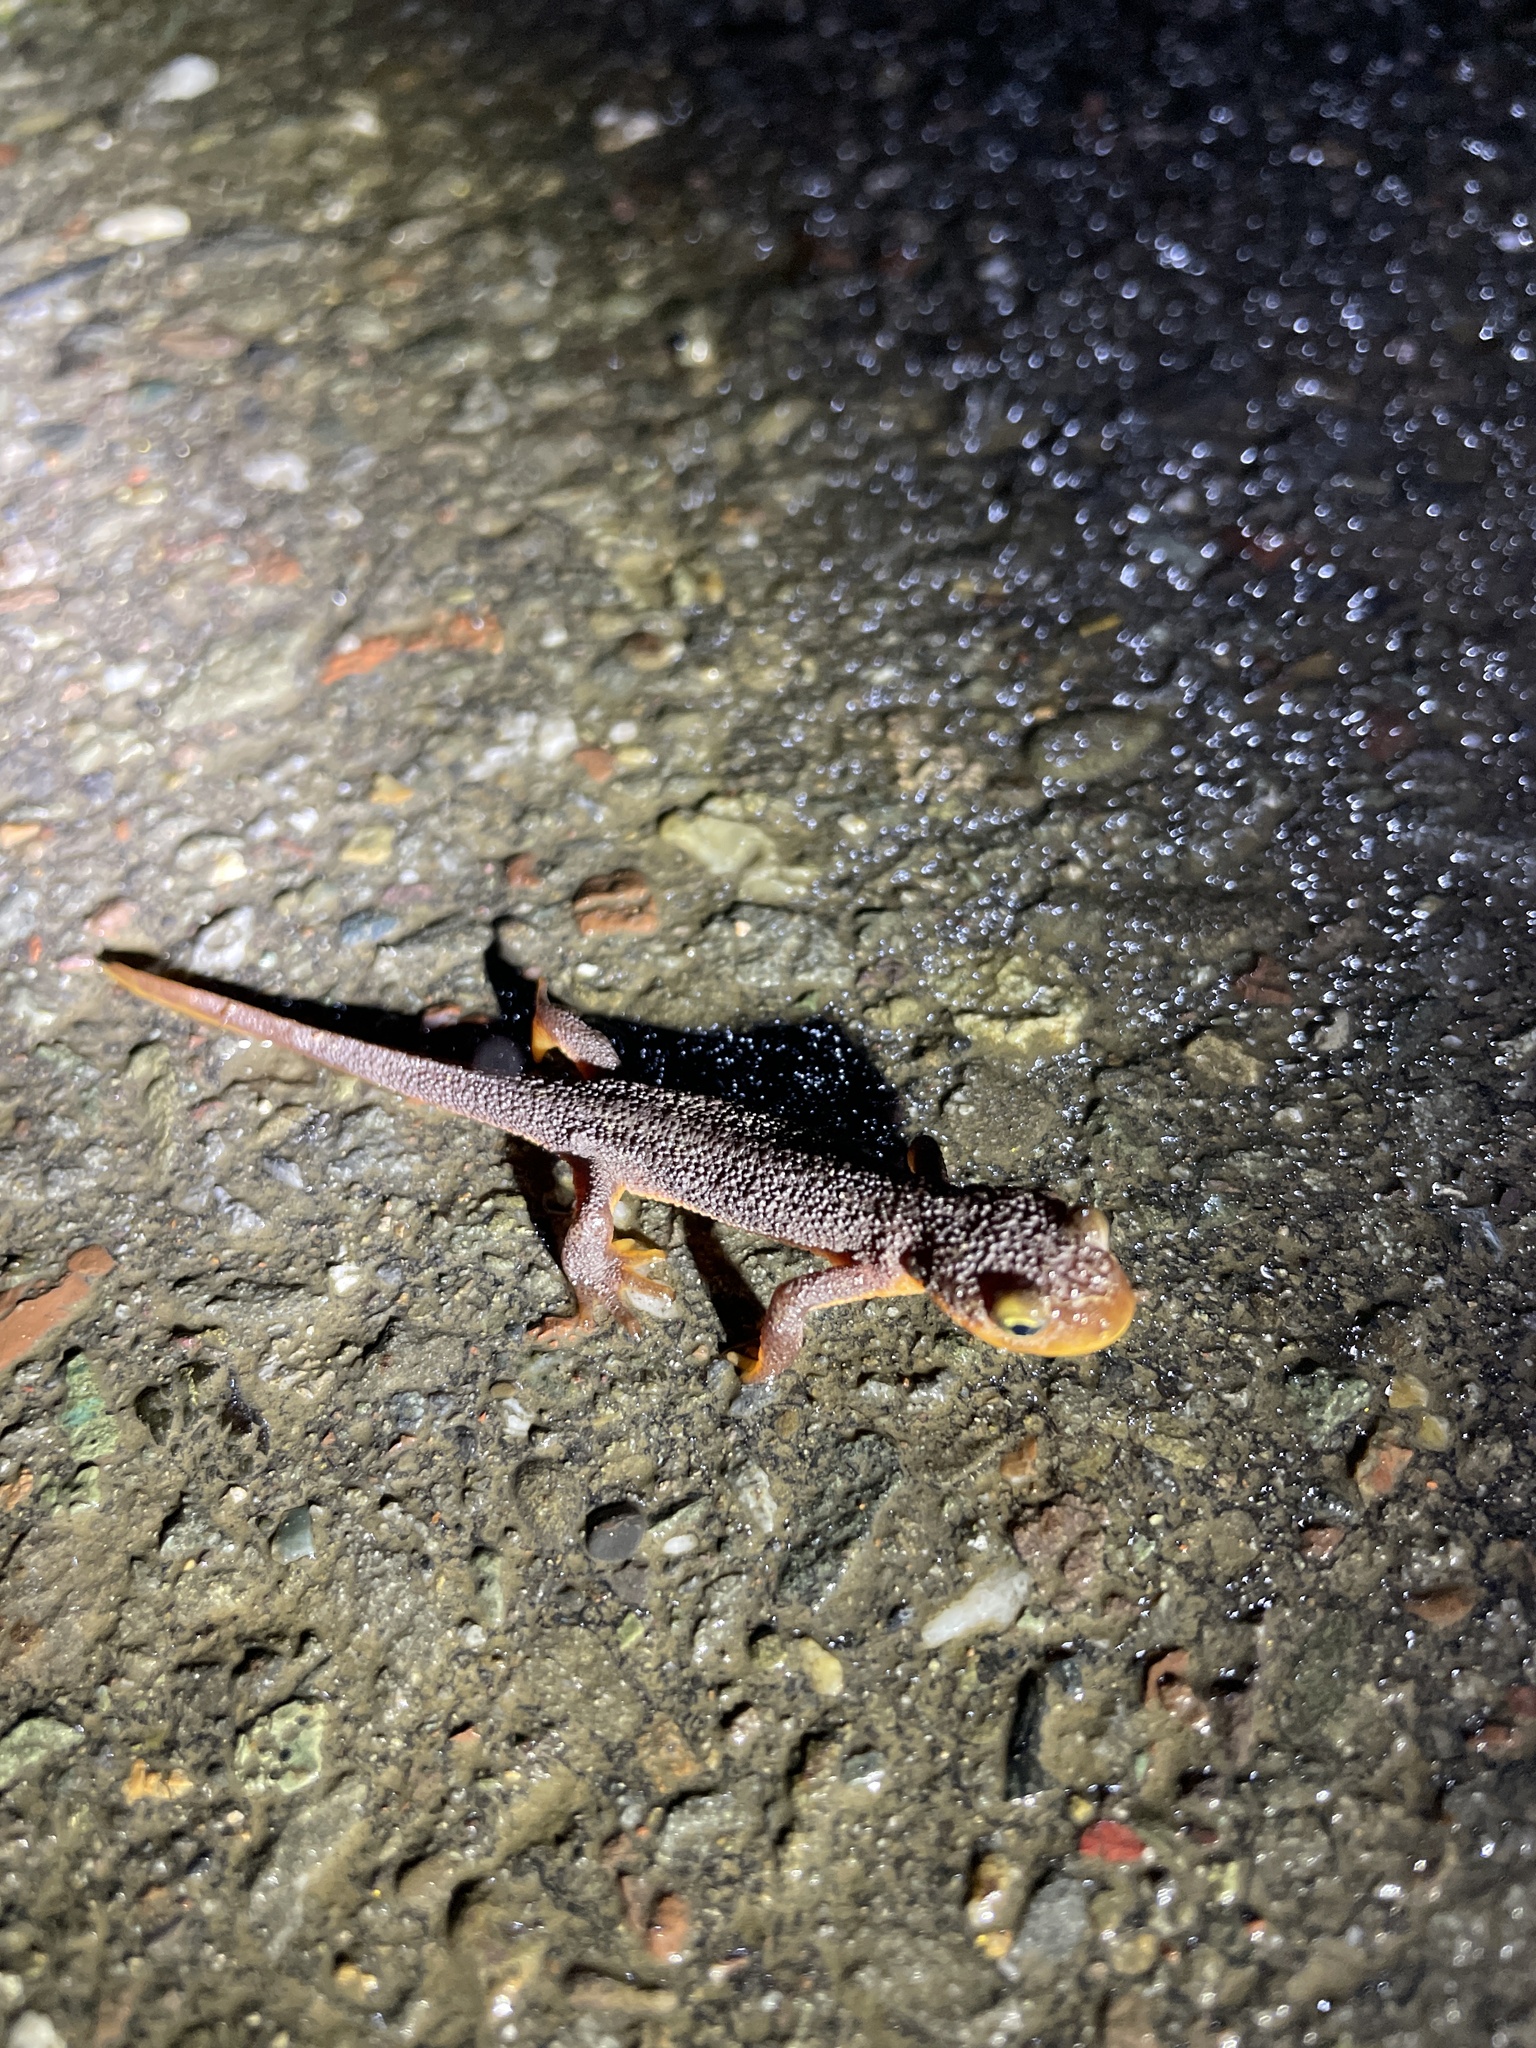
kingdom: Animalia
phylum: Chordata
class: Amphibia
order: Caudata
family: Salamandridae
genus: Taricha
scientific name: Taricha torosa
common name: California newt
